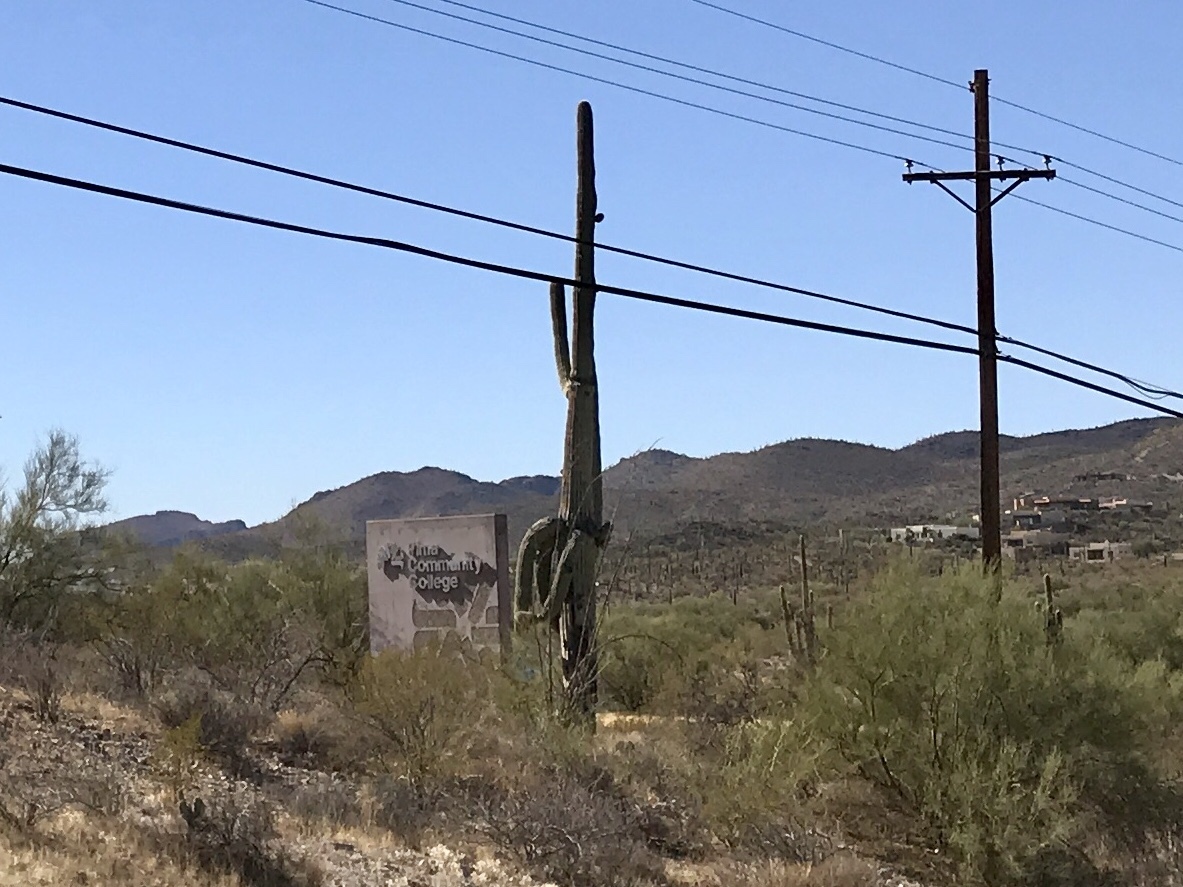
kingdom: Plantae
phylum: Tracheophyta
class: Magnoliopsida
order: Caryophyllales
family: Cactaceae
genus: Carnegiea
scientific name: Carnegiea gigantea
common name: Saguaro
